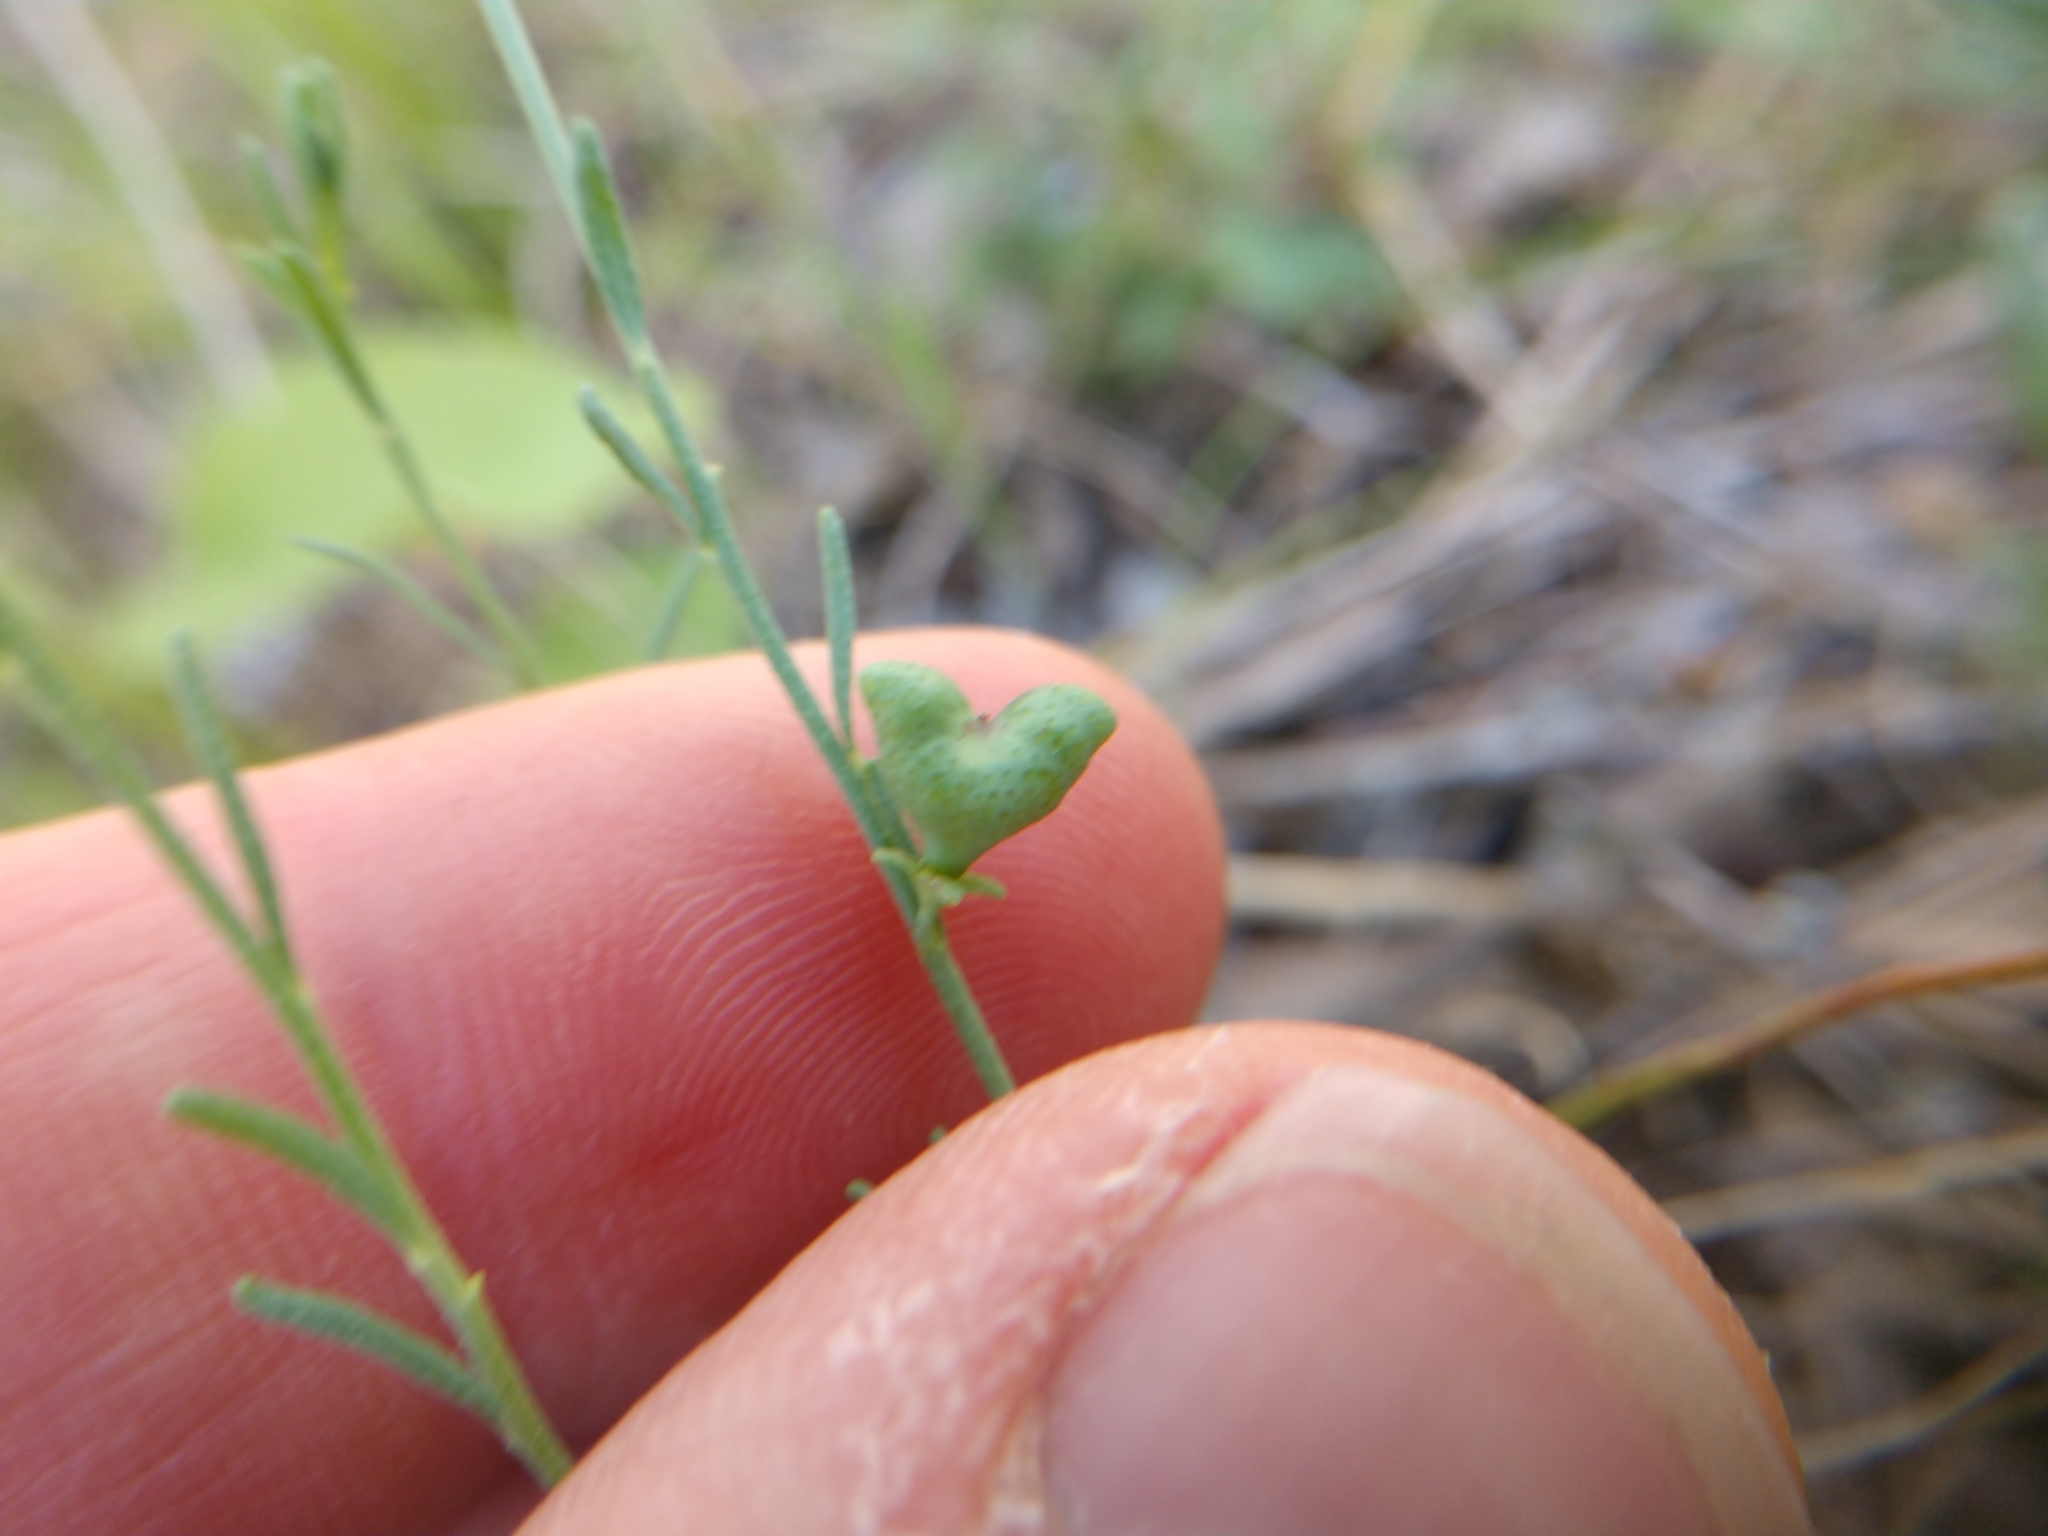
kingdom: Plantae
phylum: Tracheophyta
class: Magnoliopsida
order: Sapindales
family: Rutaceae
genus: Thamnosma
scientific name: Thamnosma texana
